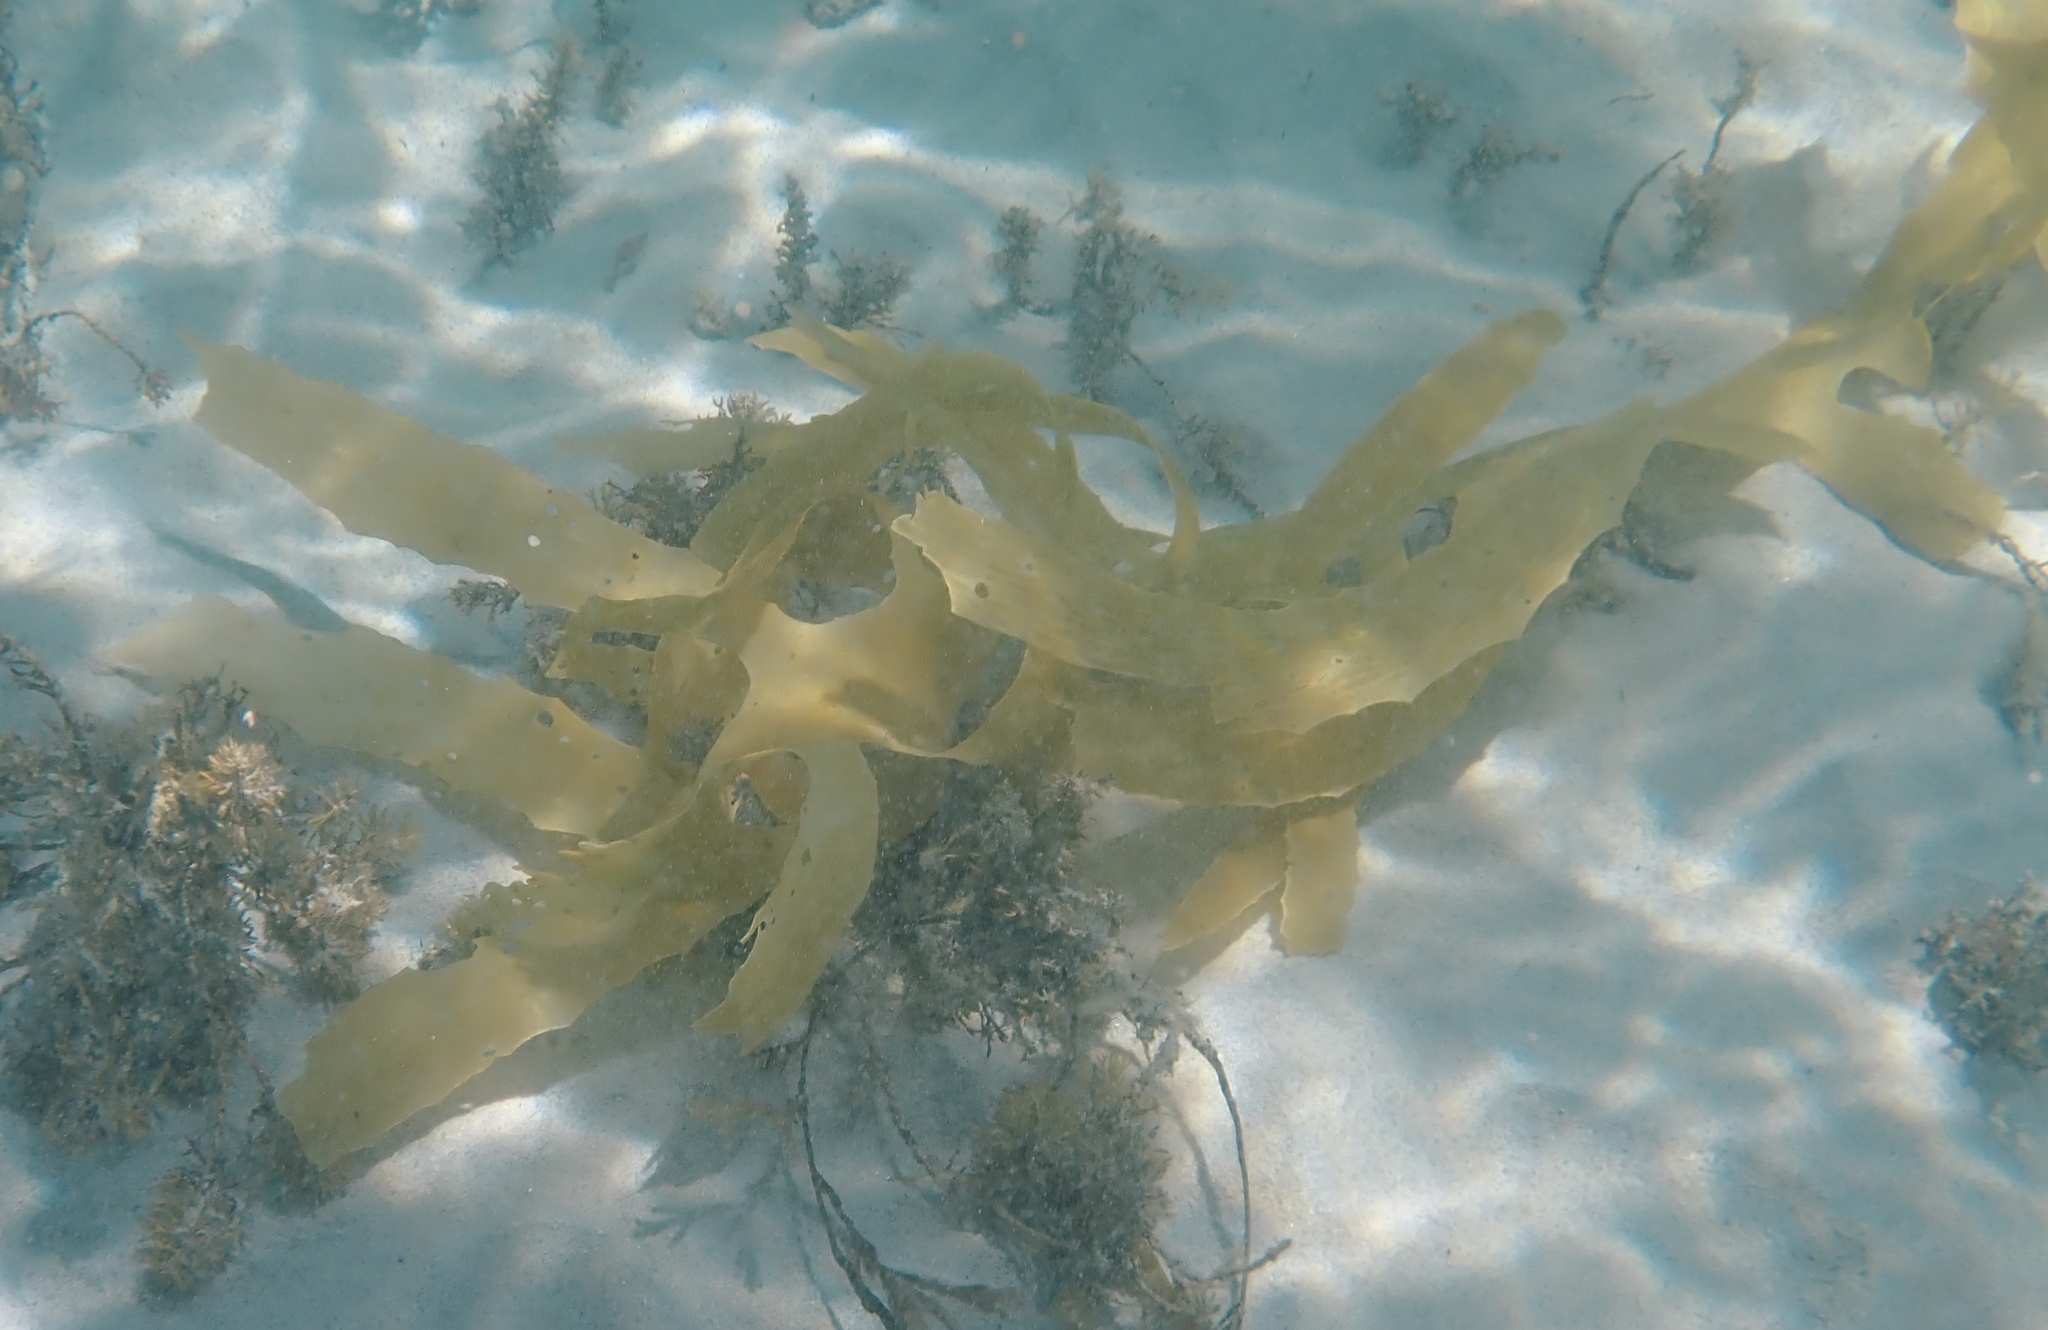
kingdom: Chromista
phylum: Ochrophyta
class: Phaeophyceae
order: Laminariales
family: Lessoniaceae
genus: Ecklonia
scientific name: Ecklonia radiata
